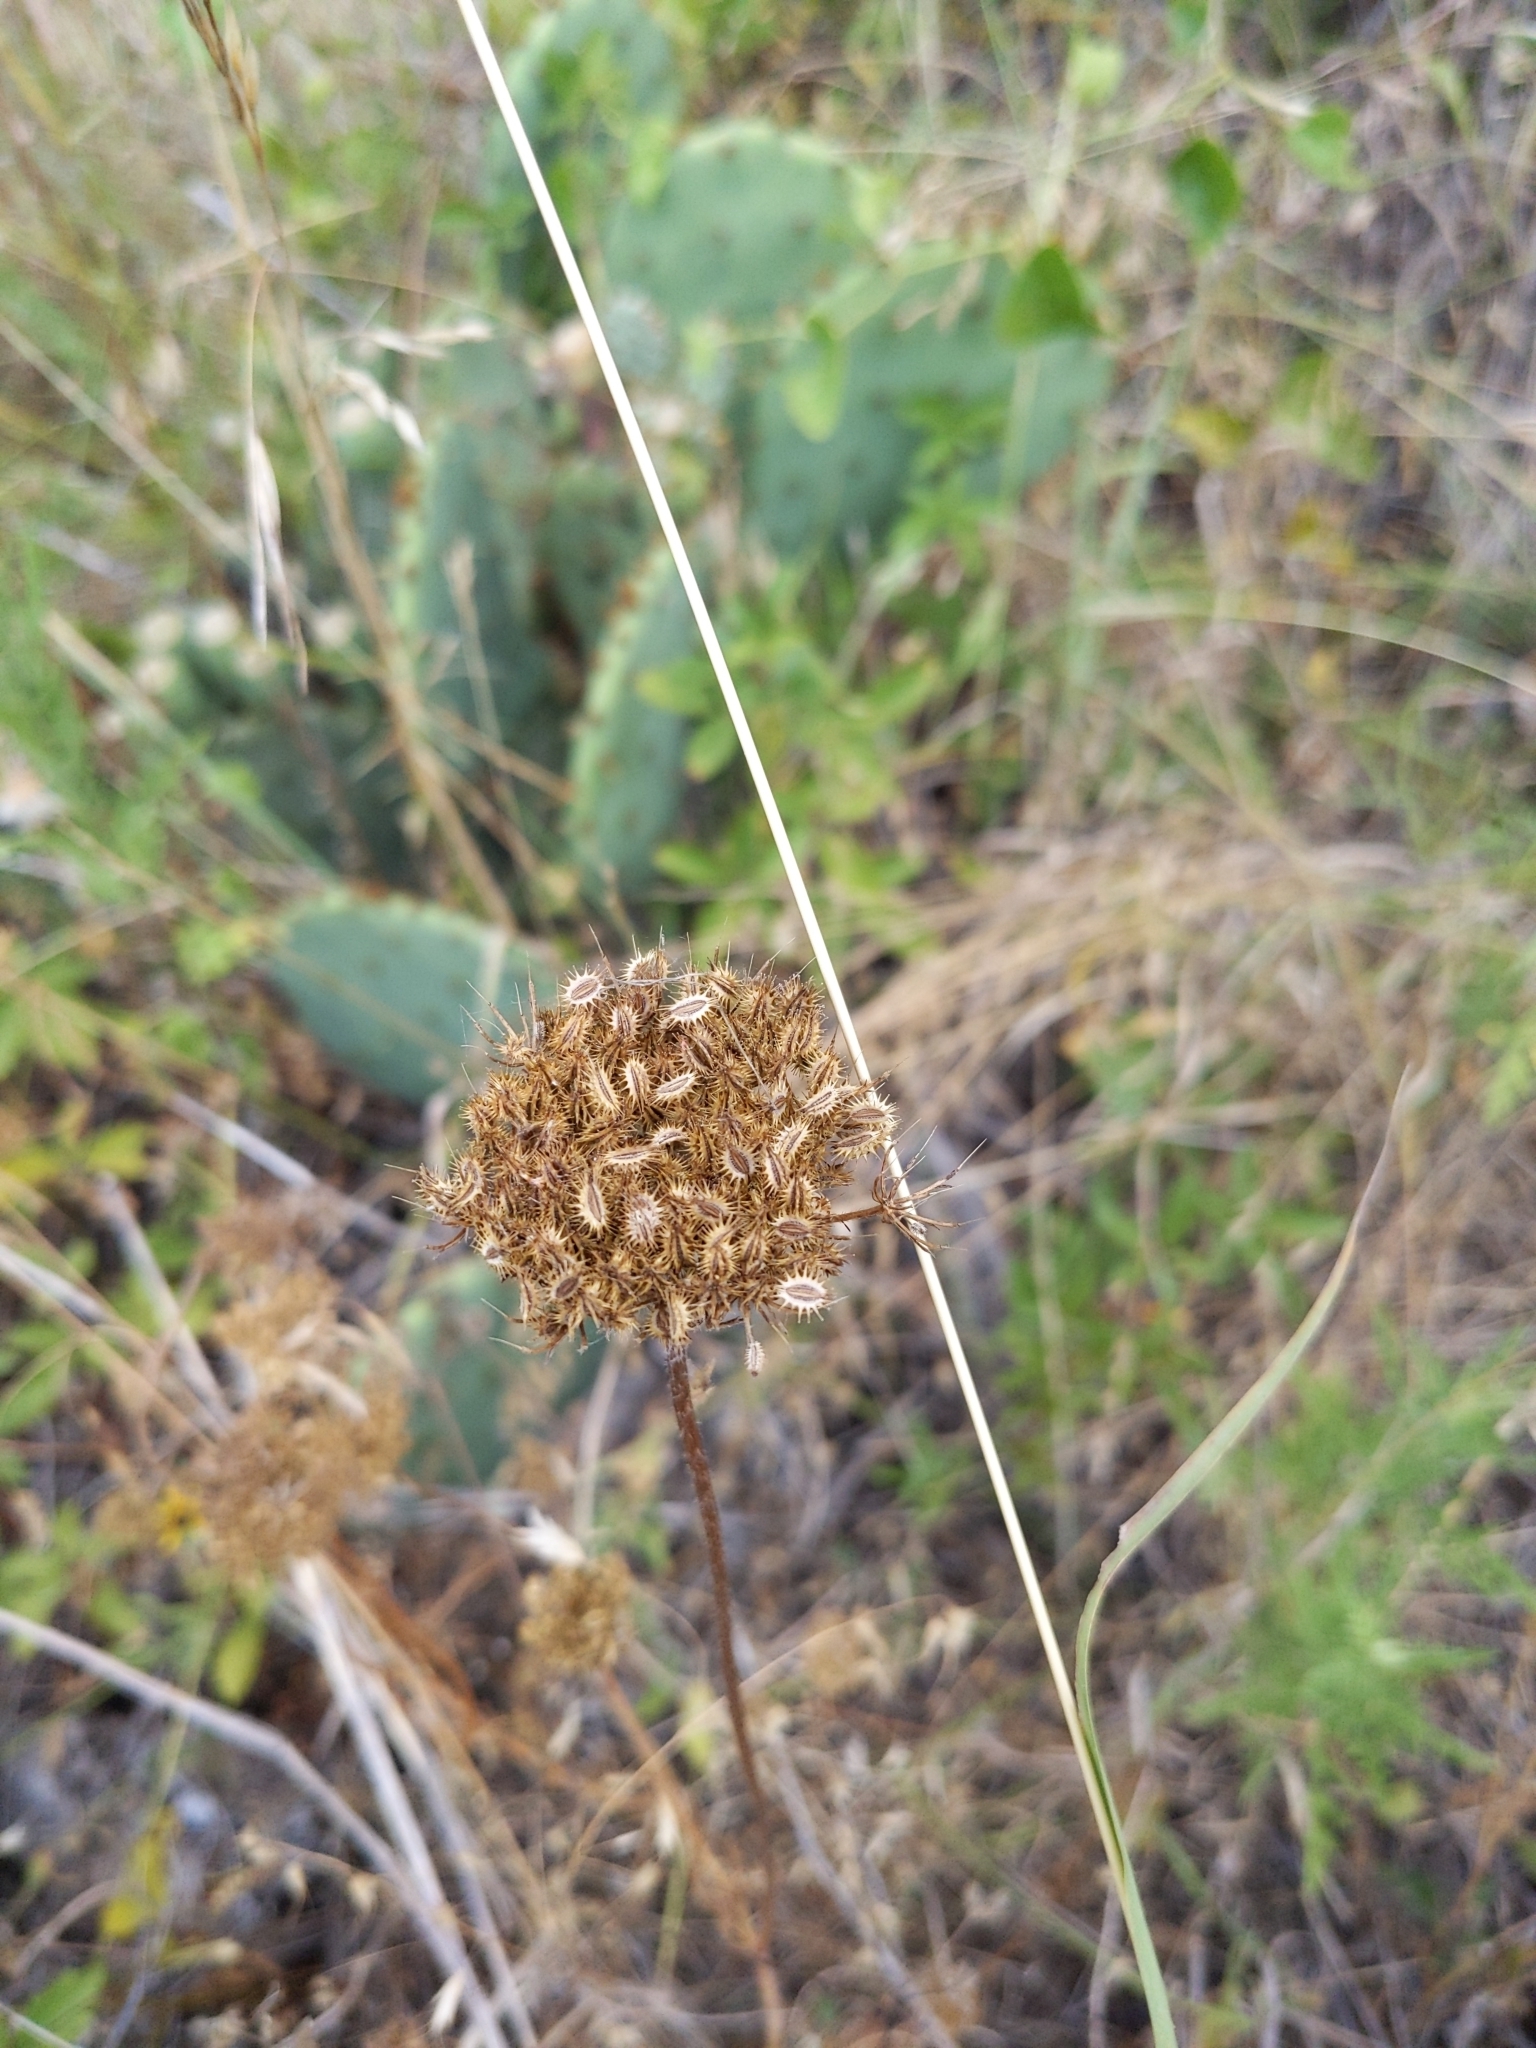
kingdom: Plantae
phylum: Tracheophyta
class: Magnoliopsida
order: Apiales
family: Apiaceae
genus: Daucus
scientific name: Daucus pusillus
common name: Southwest wild carrot
